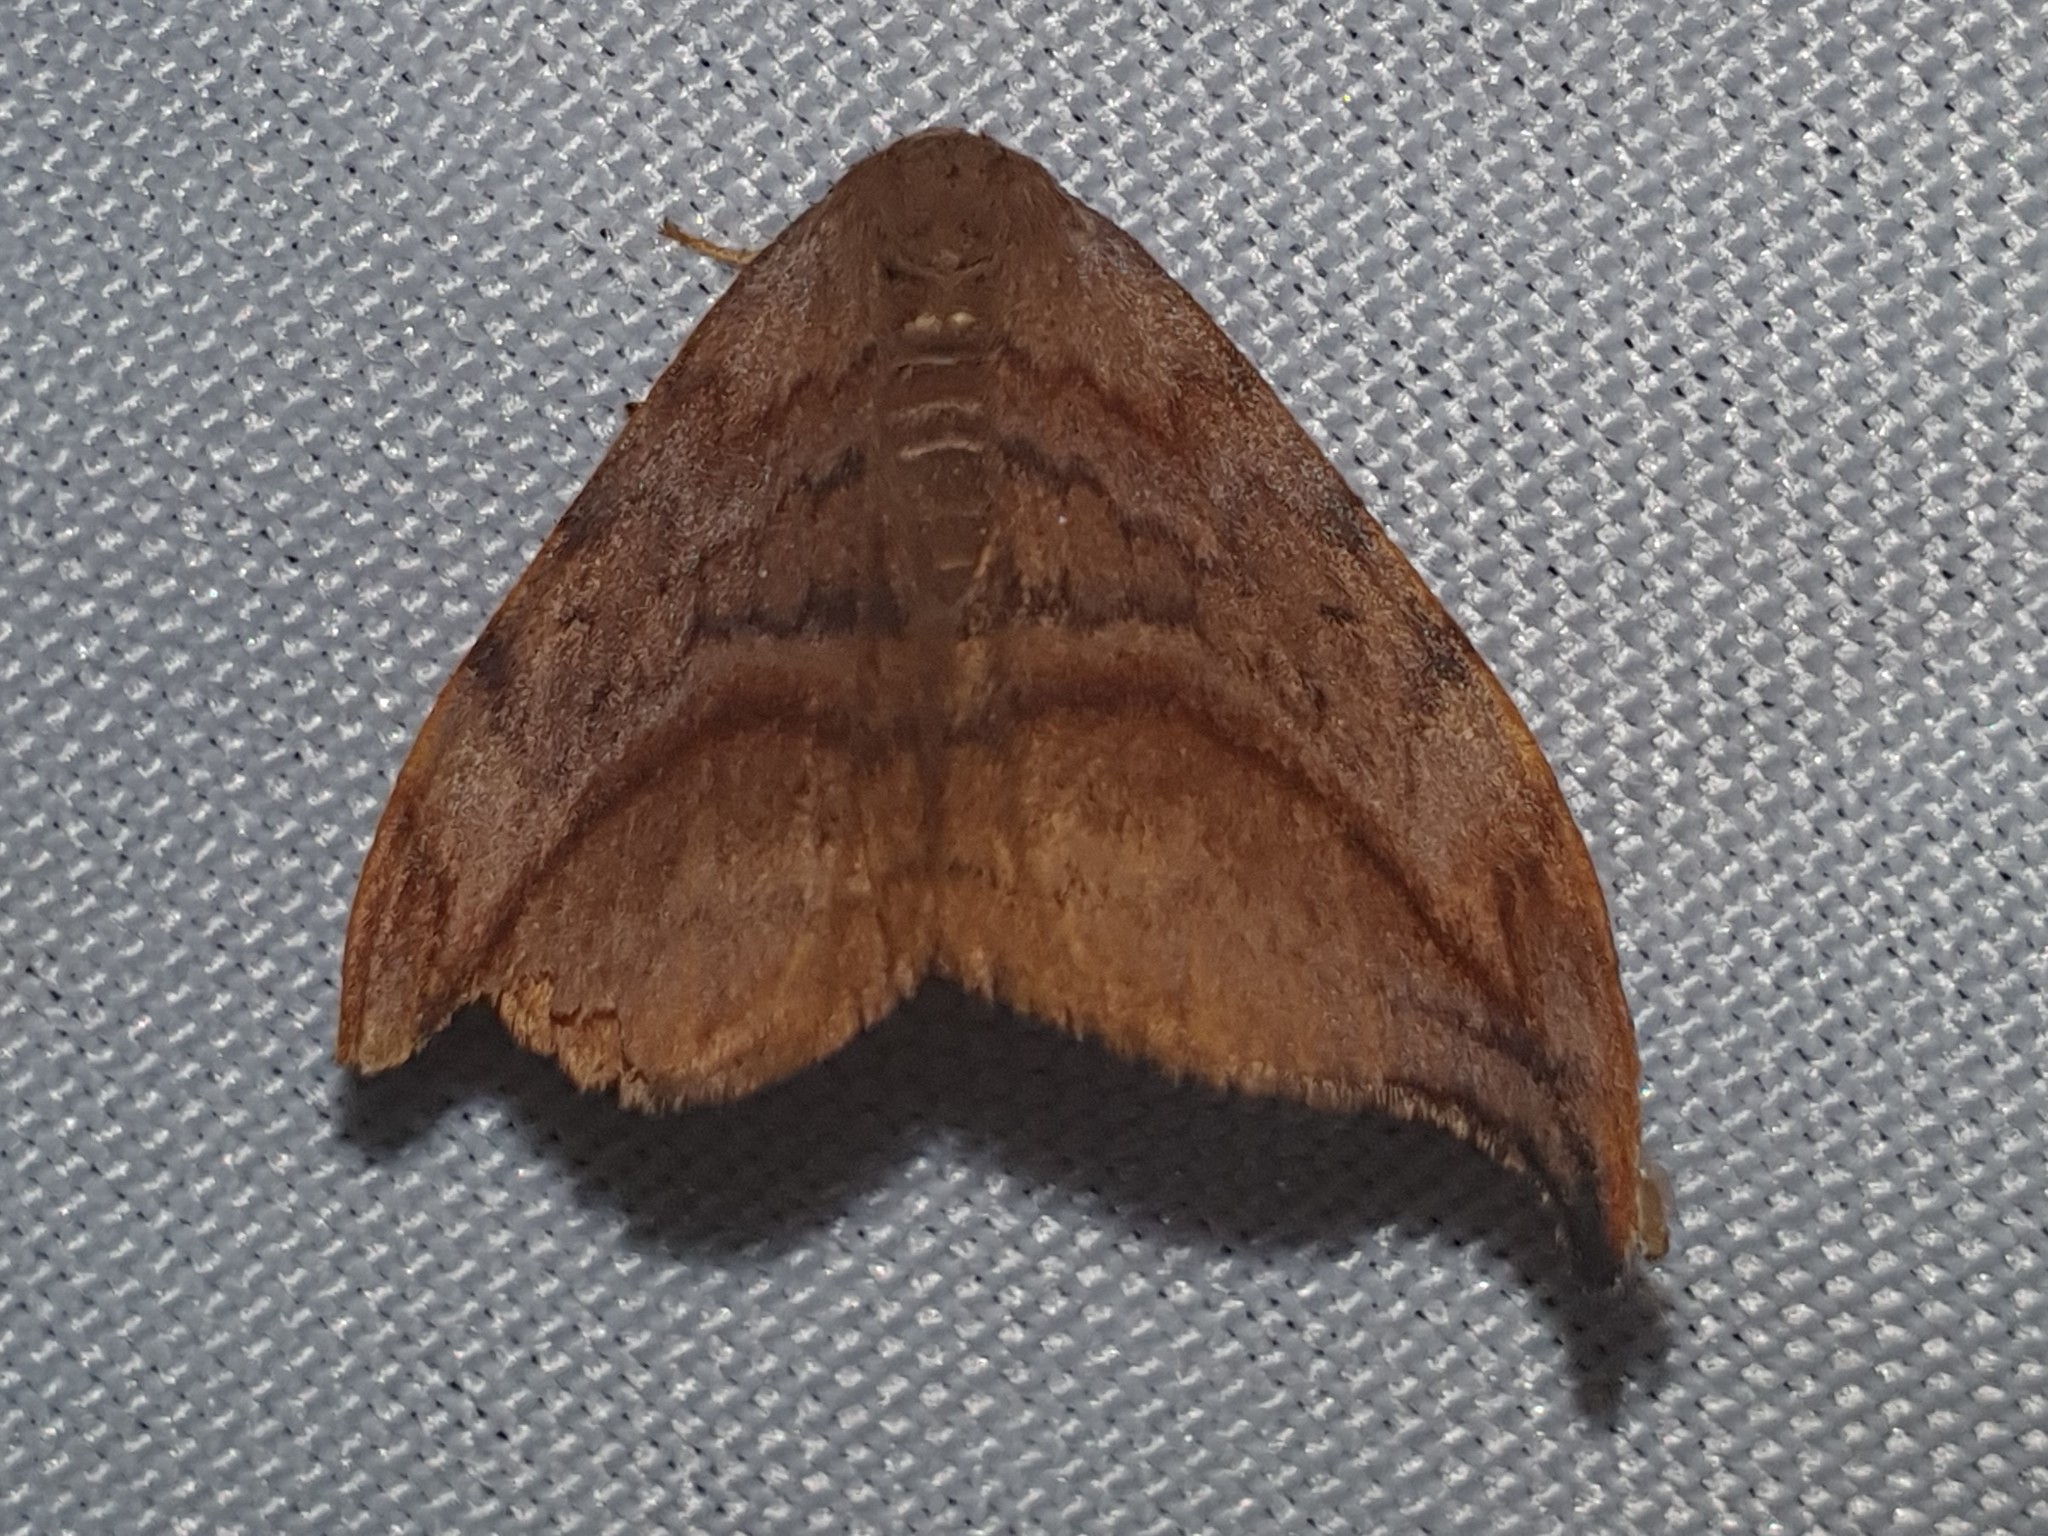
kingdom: Animalia
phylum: Arthropoda
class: Insecta
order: Lepidoptera
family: Drepanidae
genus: Drepana
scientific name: Drepana curvatula
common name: Dusky hook-tip
